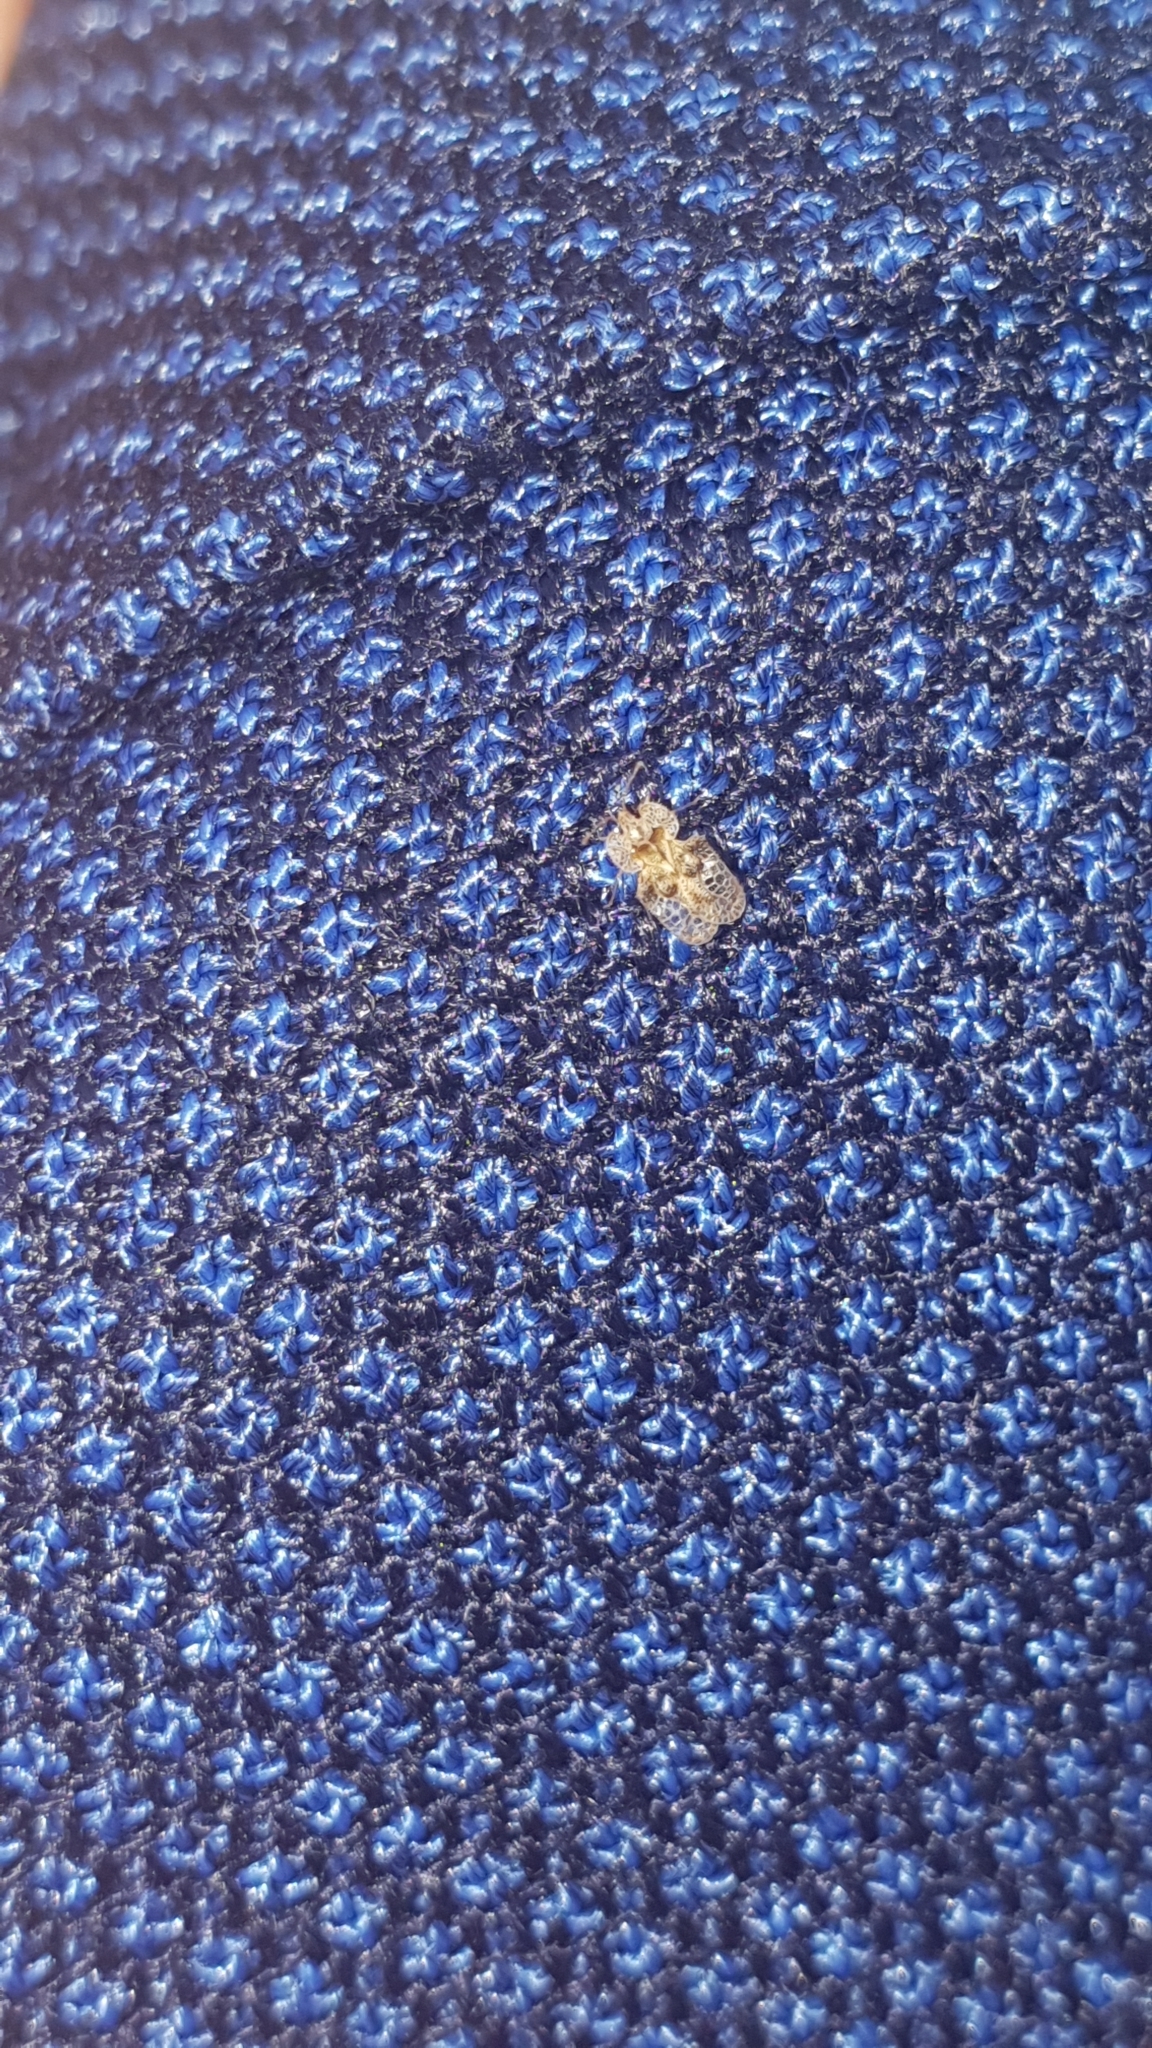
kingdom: Animalia
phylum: Arthropoda
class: Insecta
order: Hemiptera
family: Tingidae
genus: Corythucha
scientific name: Corythucha arcuata
